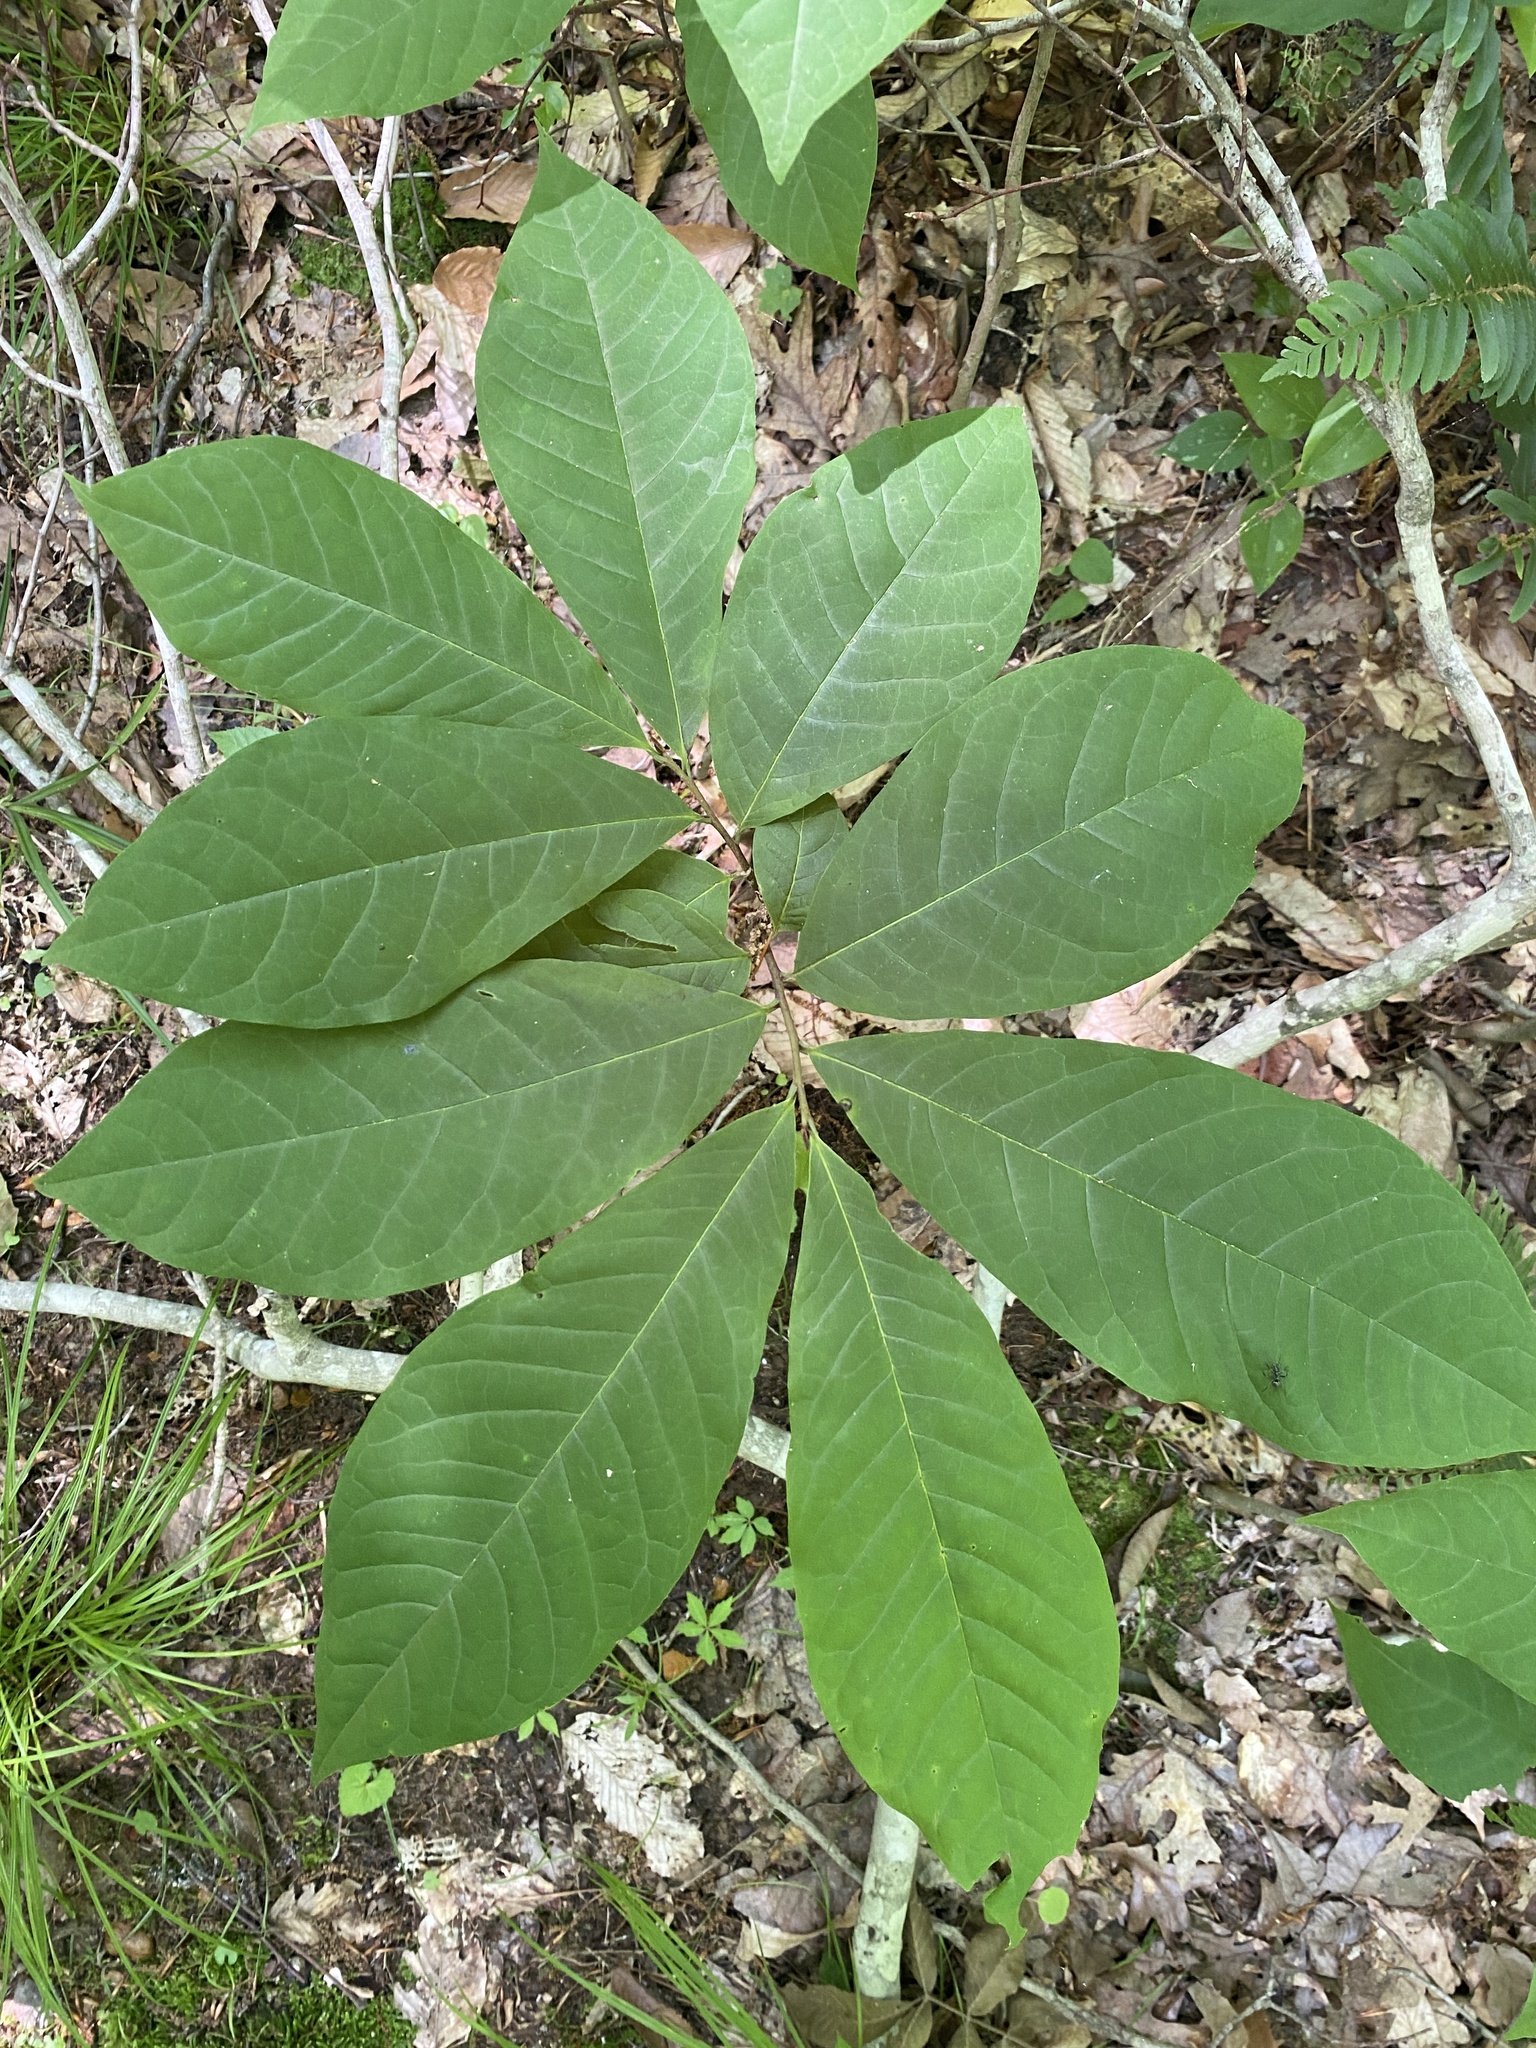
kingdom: Plantae
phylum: Tracheophyta
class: Magnoliopsida
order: Magnoliales
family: Annonaceae
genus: Asimina
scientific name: Asimina triloba
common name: Dog-banana
